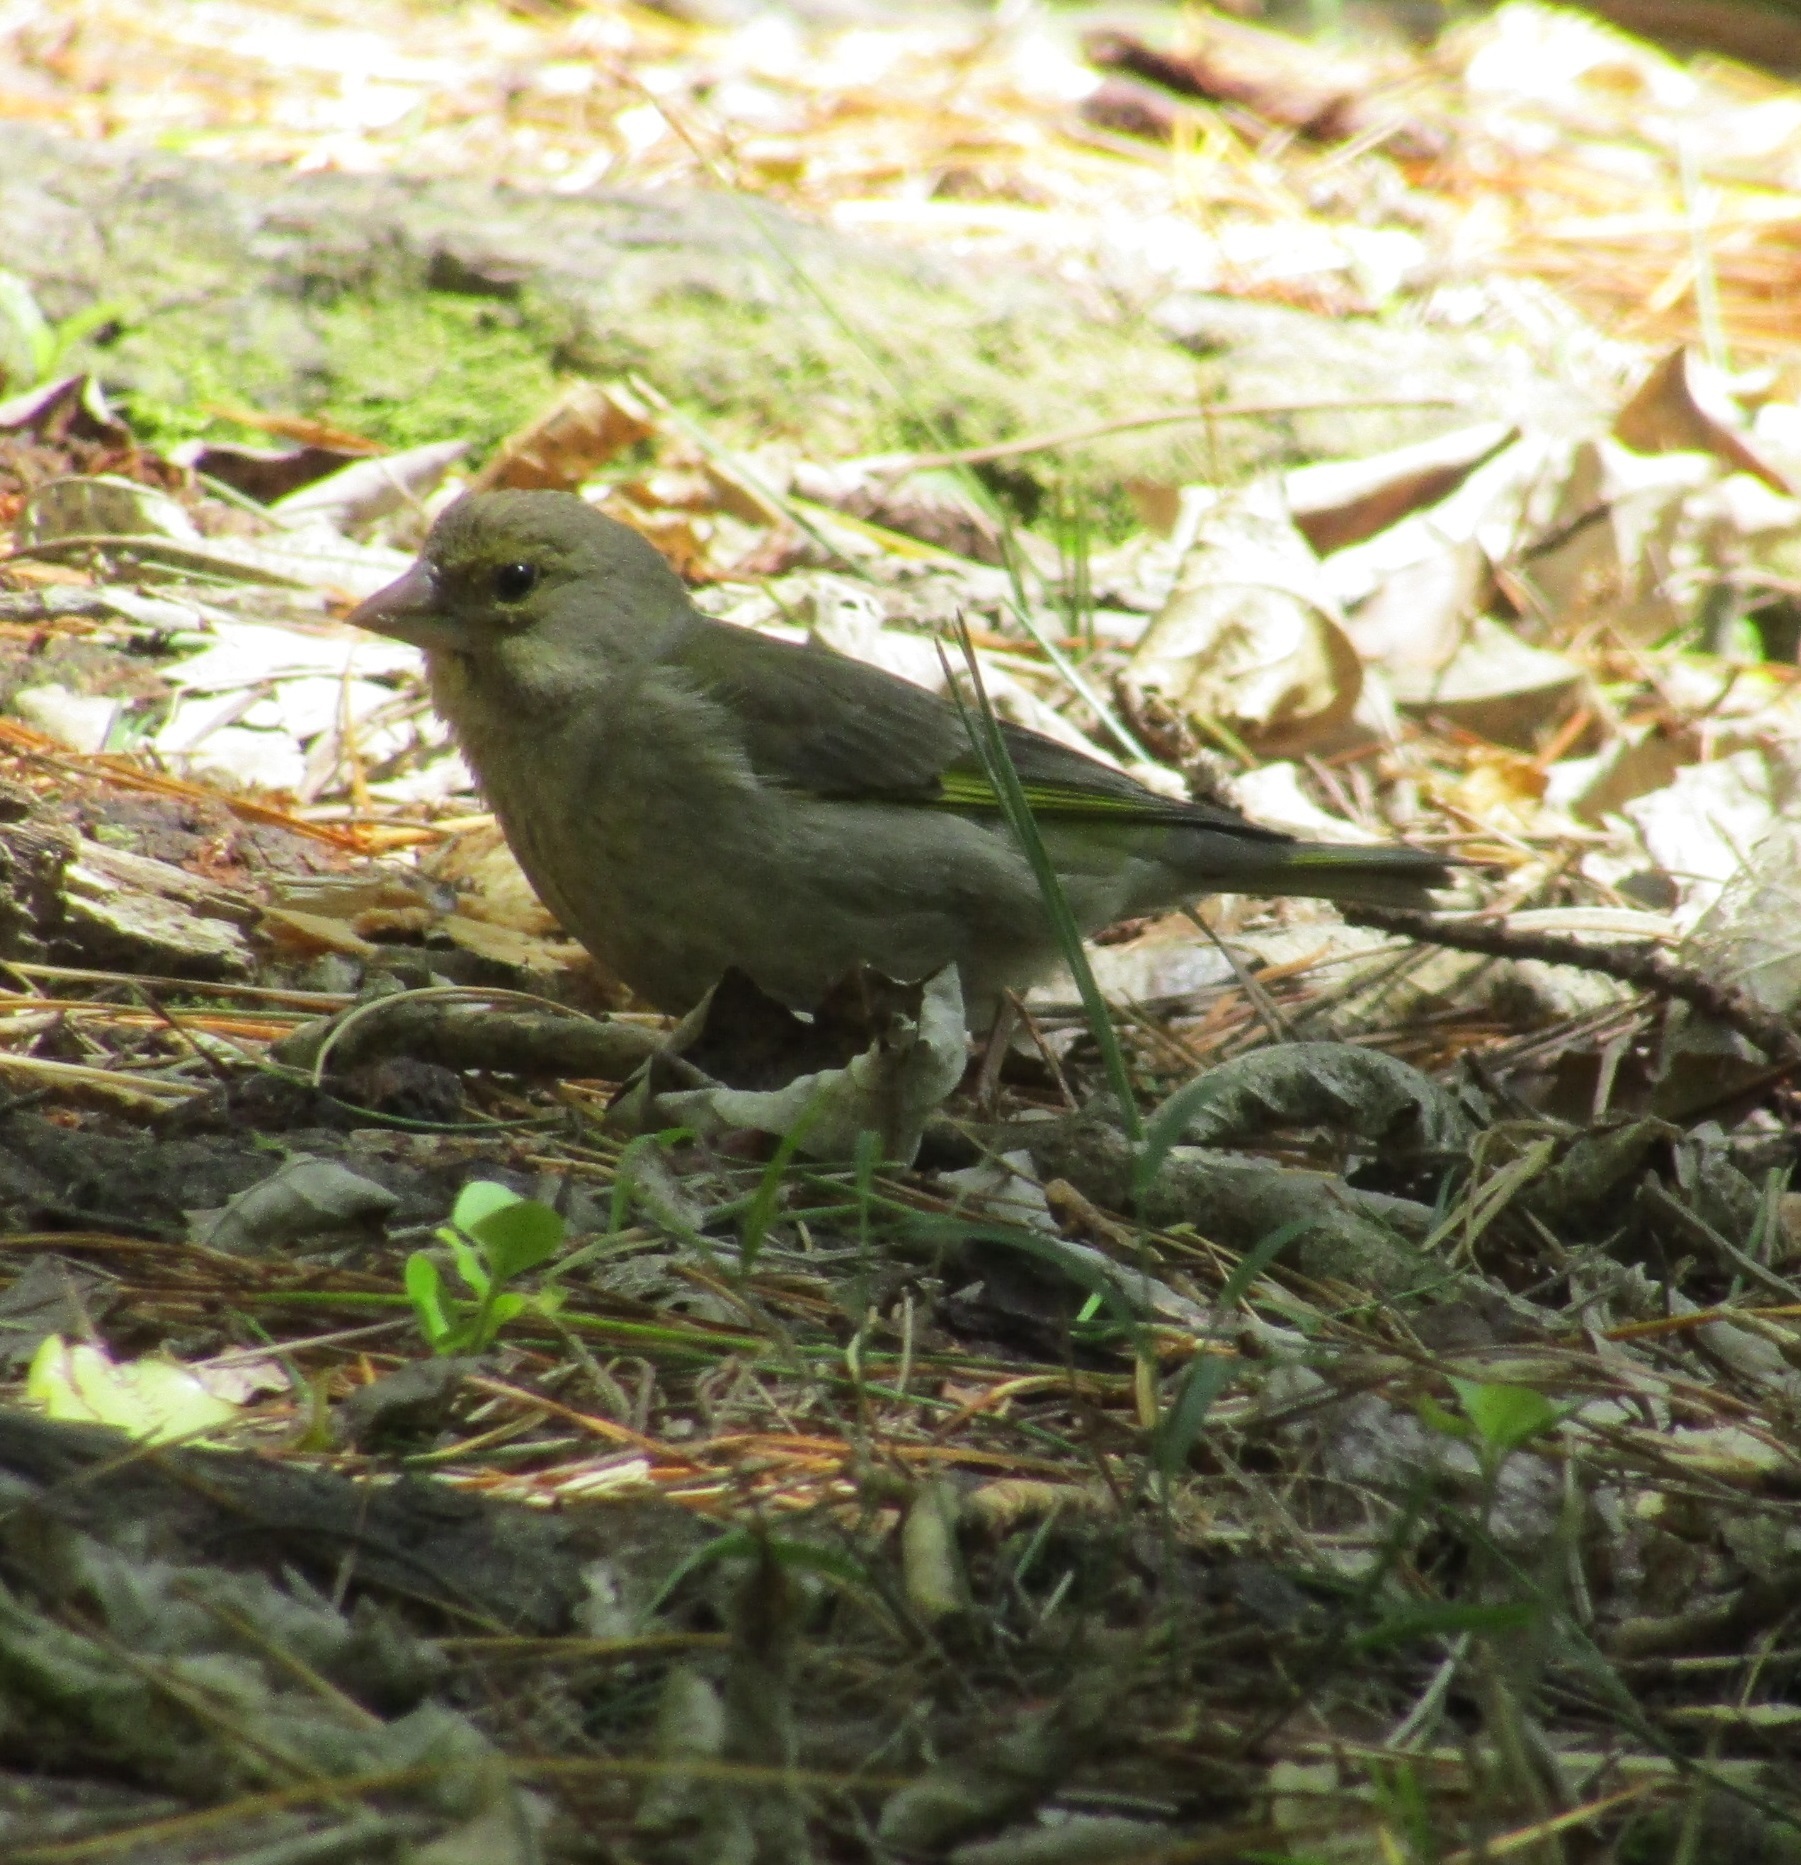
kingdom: Plantae
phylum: Tracheophyta
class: Liliopsida
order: Poales
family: Poaceae
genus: Chloris
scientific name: Chloris chloris
